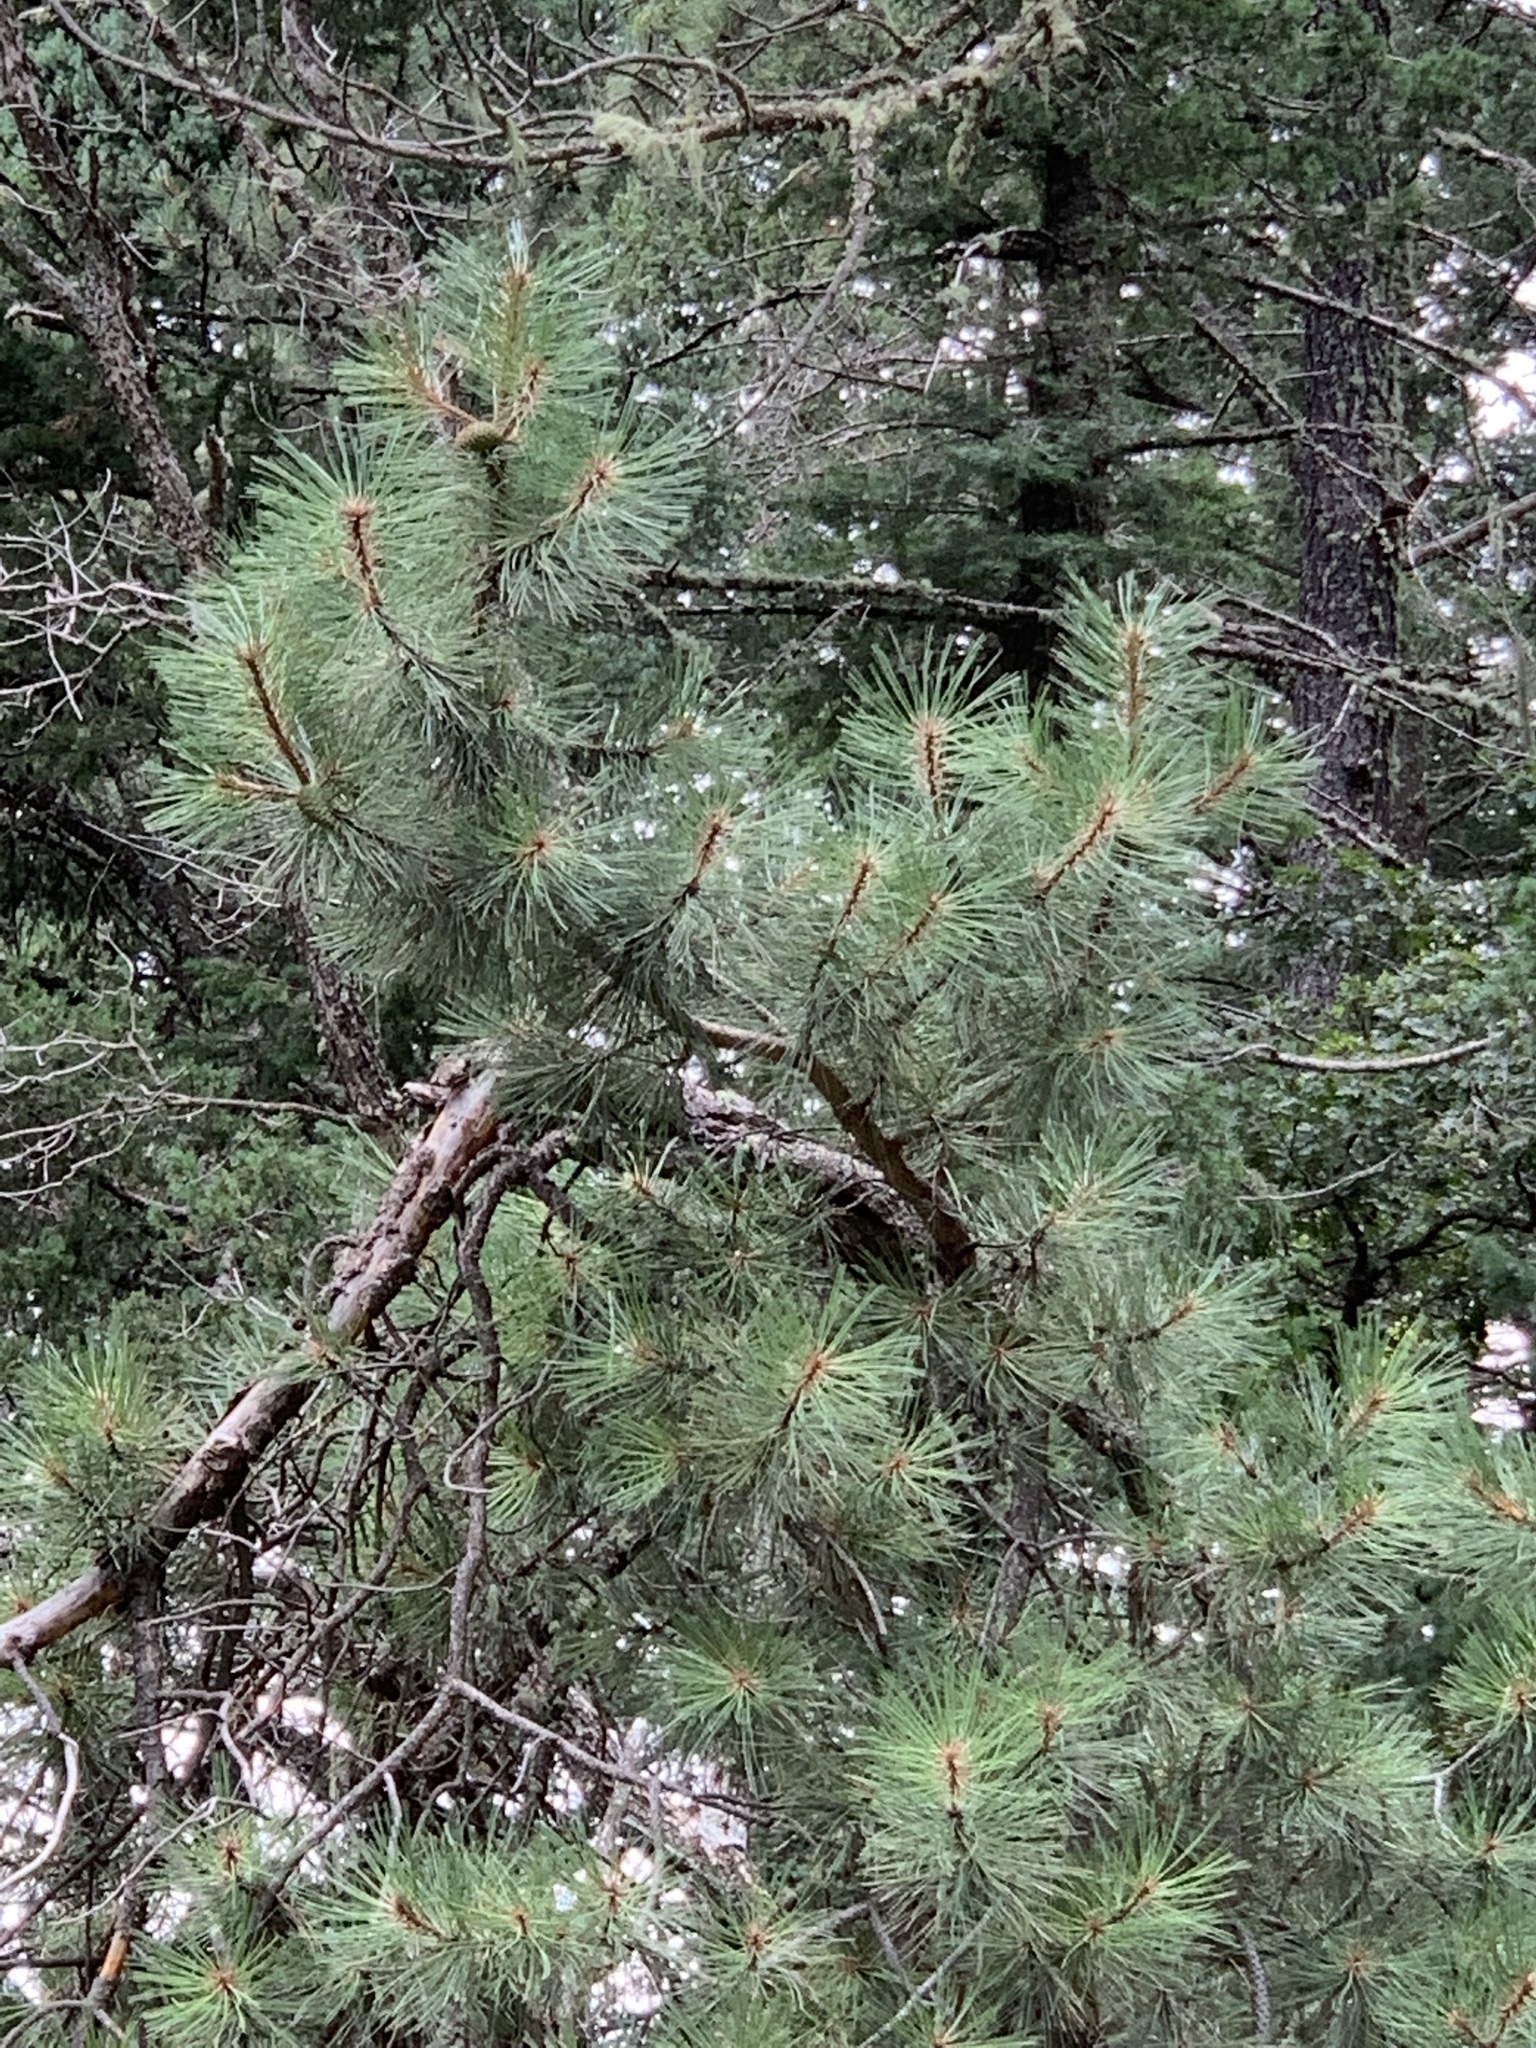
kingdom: Plantae
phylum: Tracheophyta
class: Pinopsida
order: Pinales
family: Pinaceae
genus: Pinus
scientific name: Pinus ponderosa
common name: Western yellow-pine
